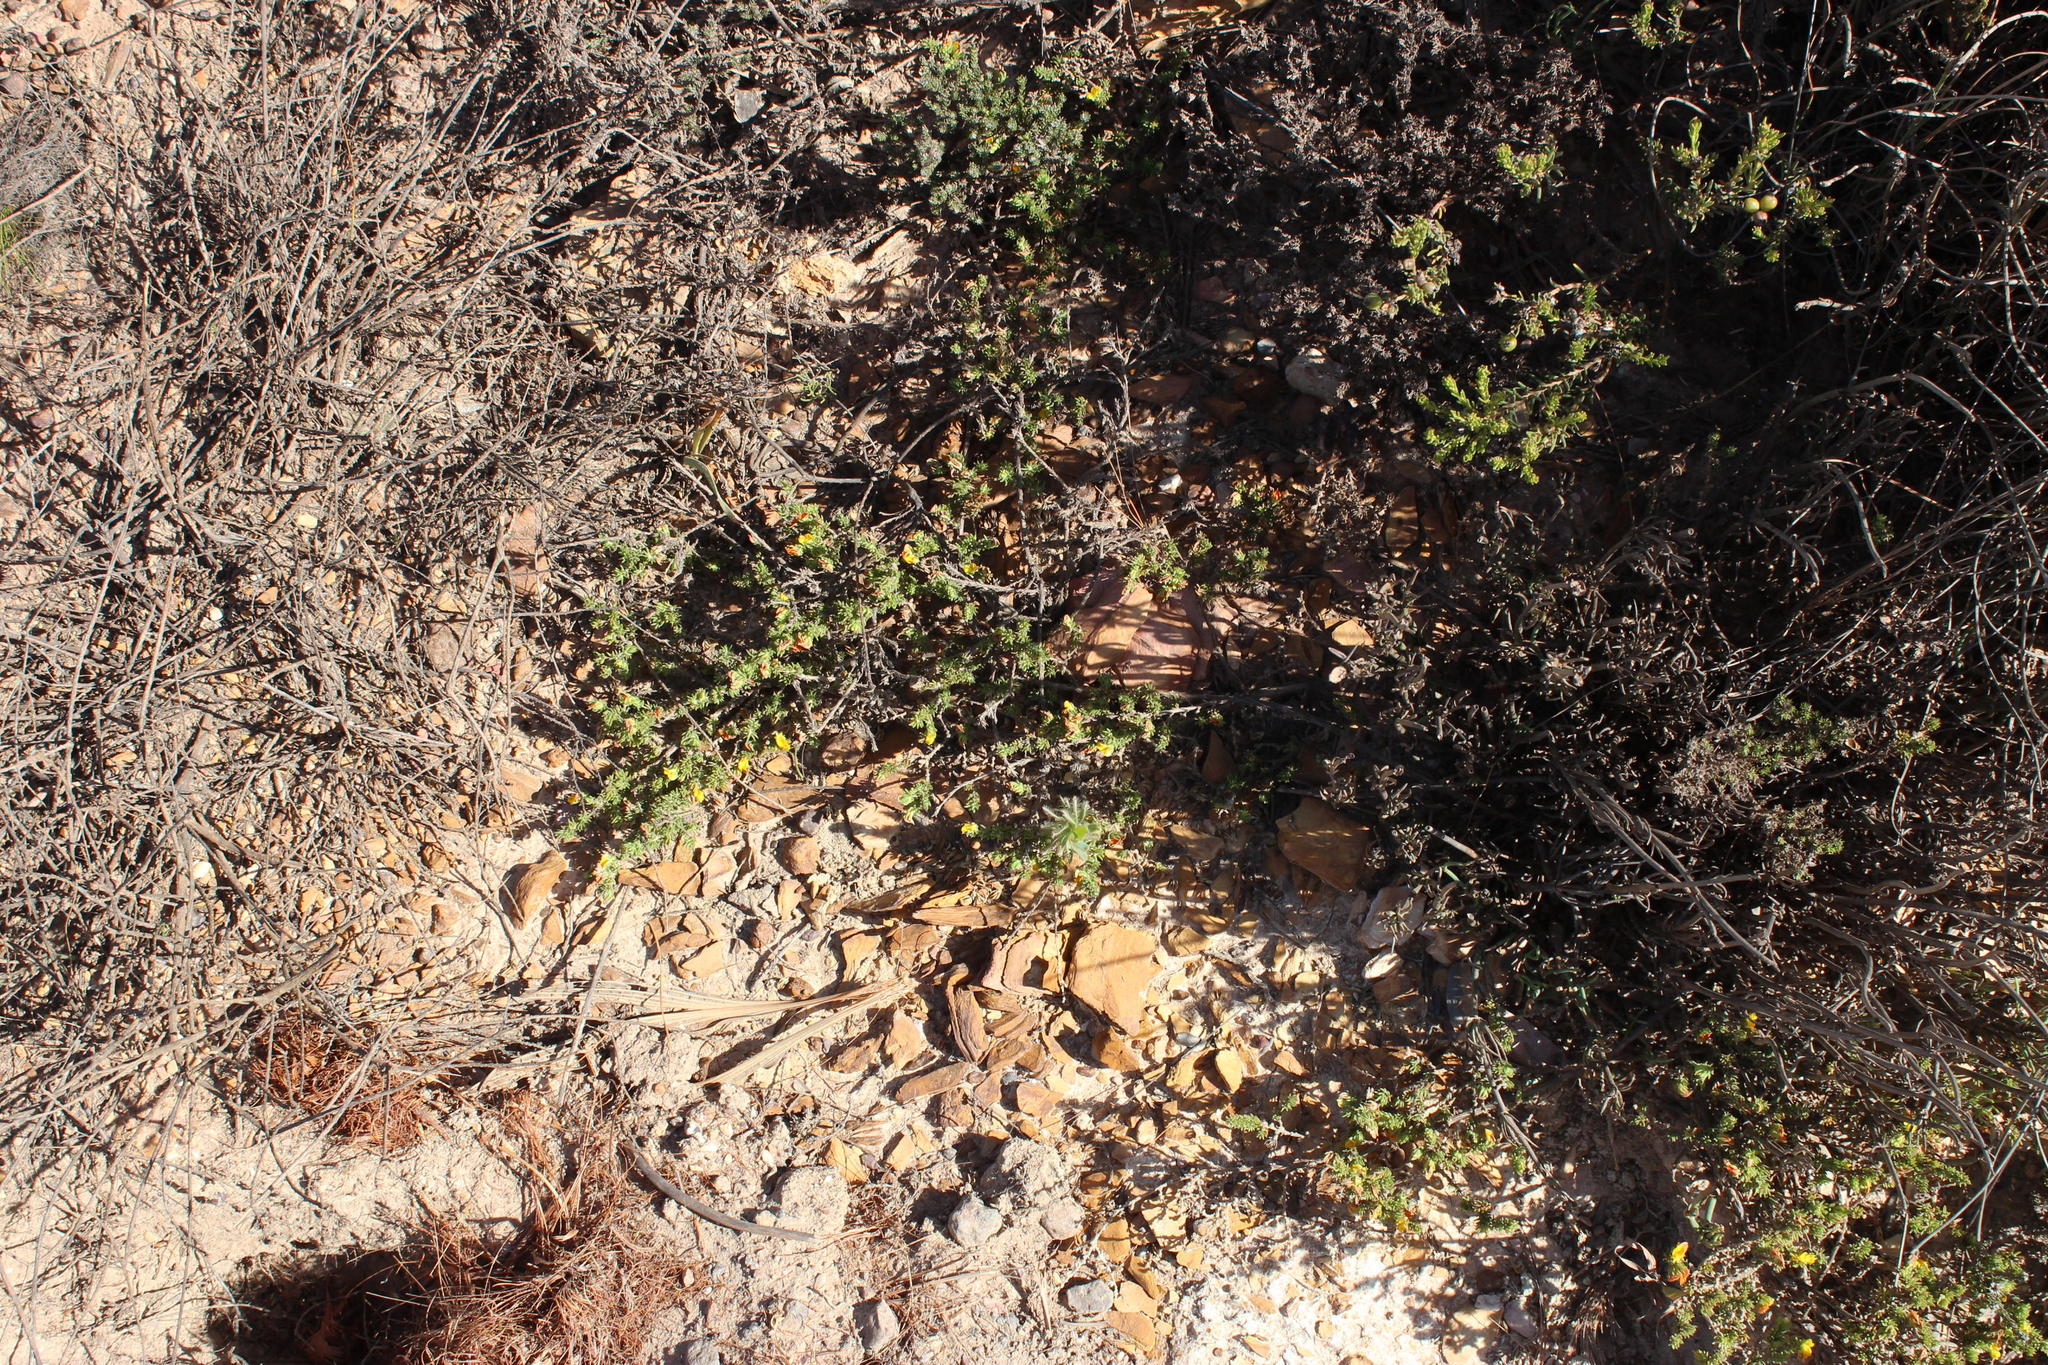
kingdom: Plantae
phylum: Tracheophyta
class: Magnoliopsida
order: Fabales
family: Fabaceae
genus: Aspalathus
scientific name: Aspalathus juniperina
